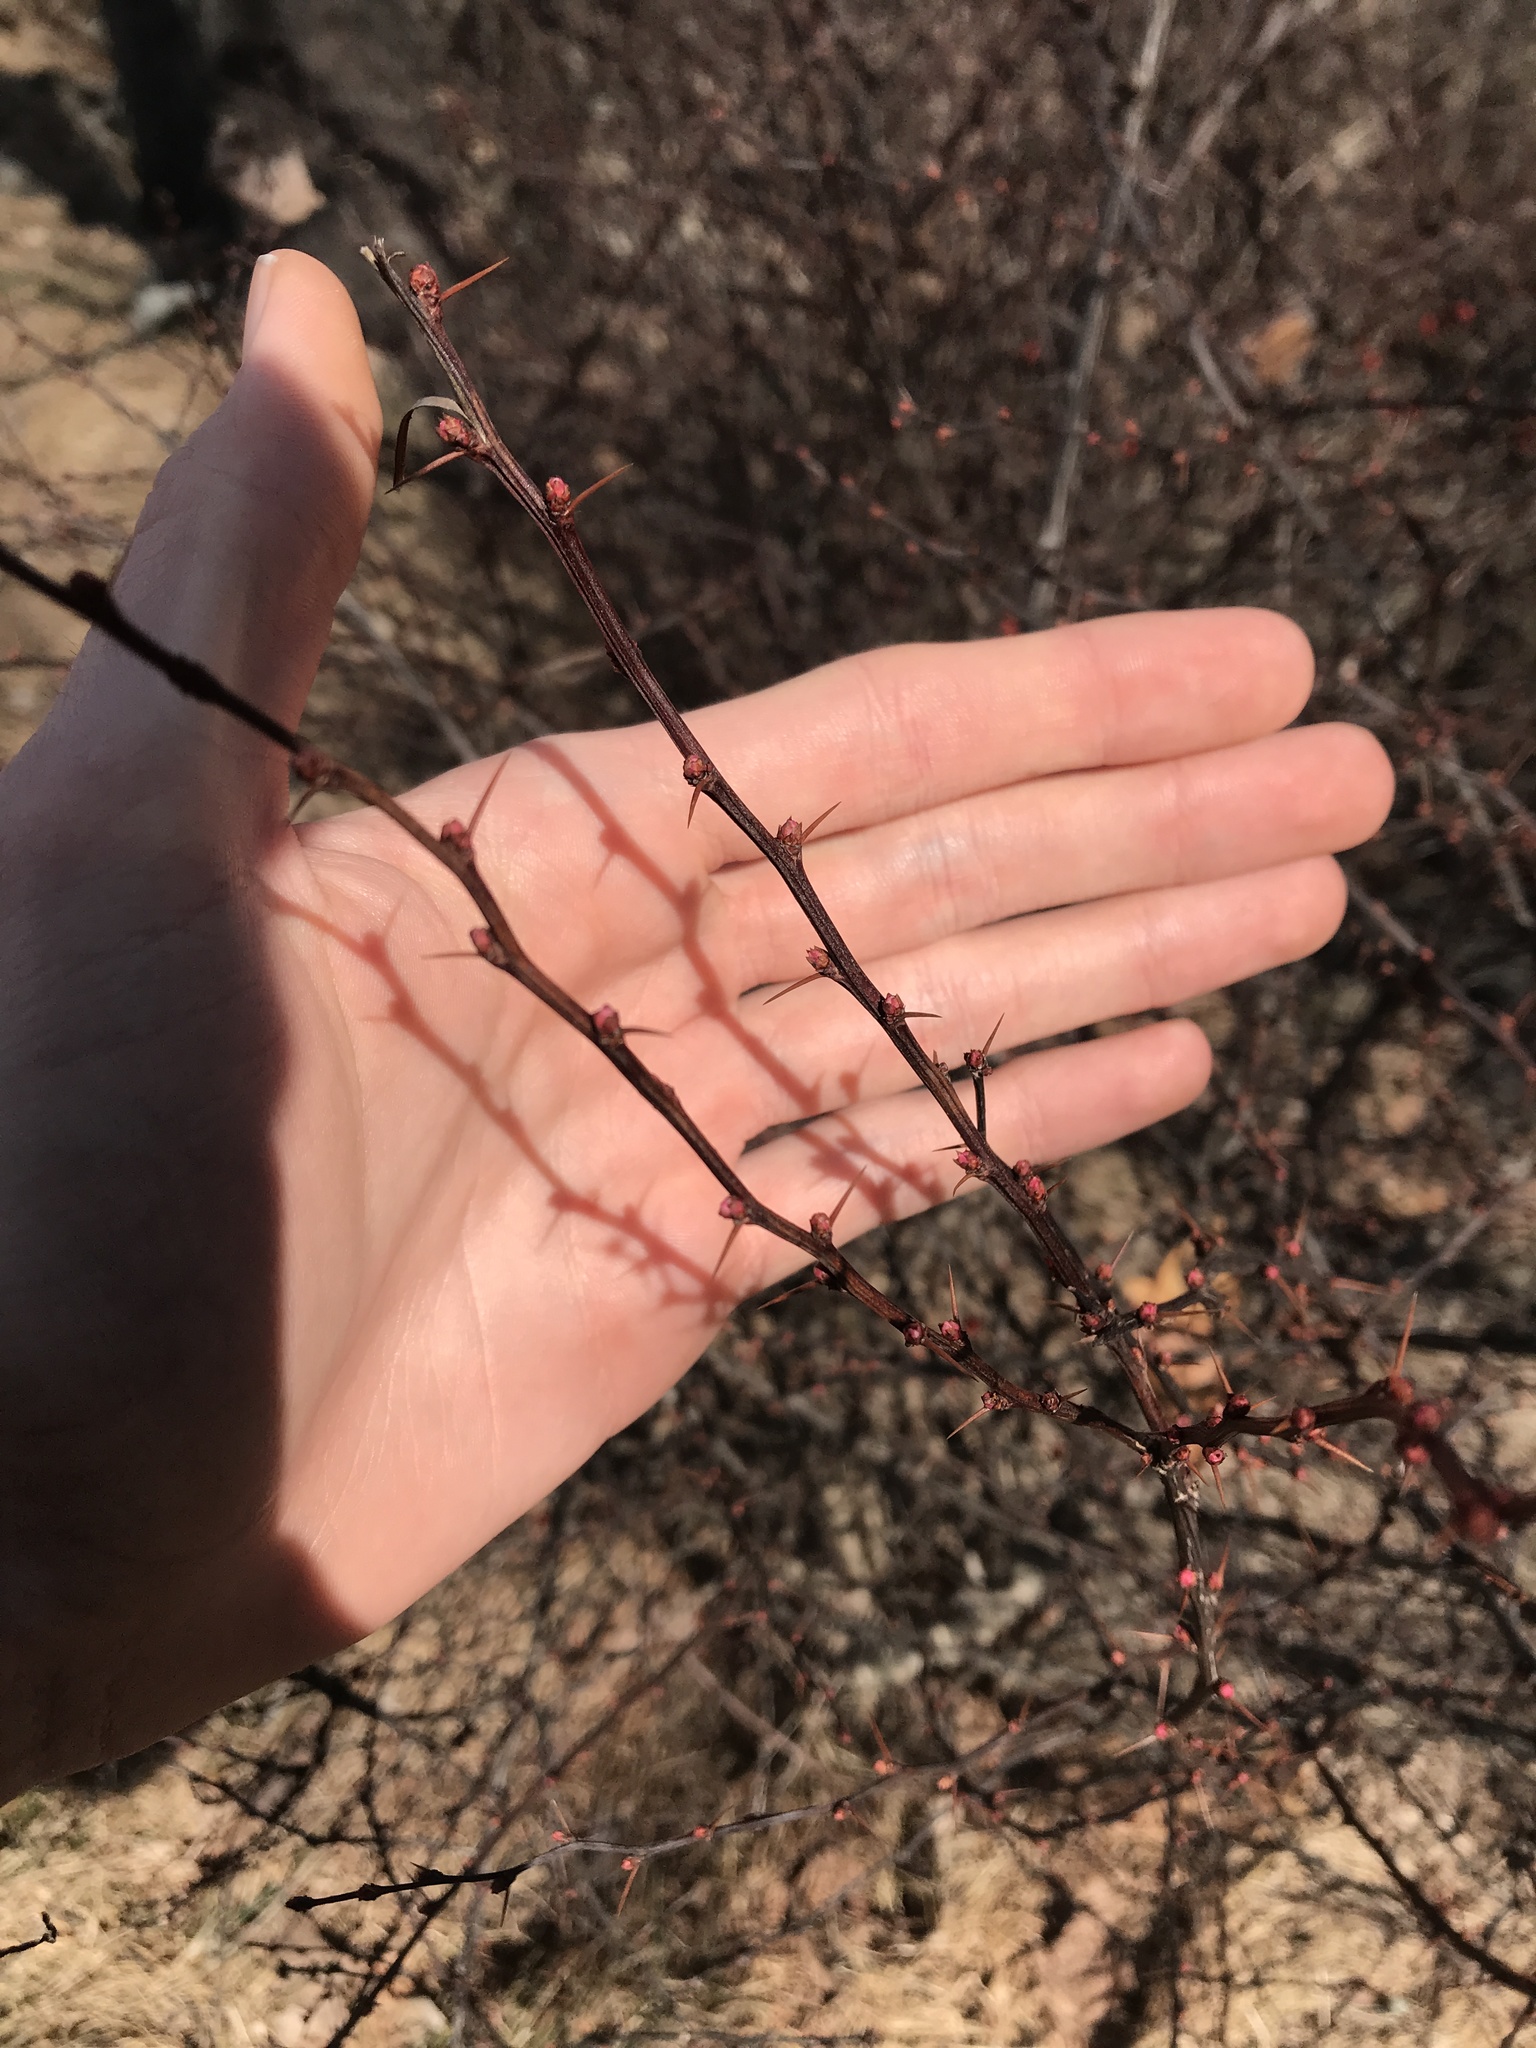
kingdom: Plantae
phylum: Tracheophyta
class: Magnoliopsida
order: Ranunculales
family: Berberidaceae
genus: Berberis
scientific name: Berberis thunbergii
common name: Japanese barberry
